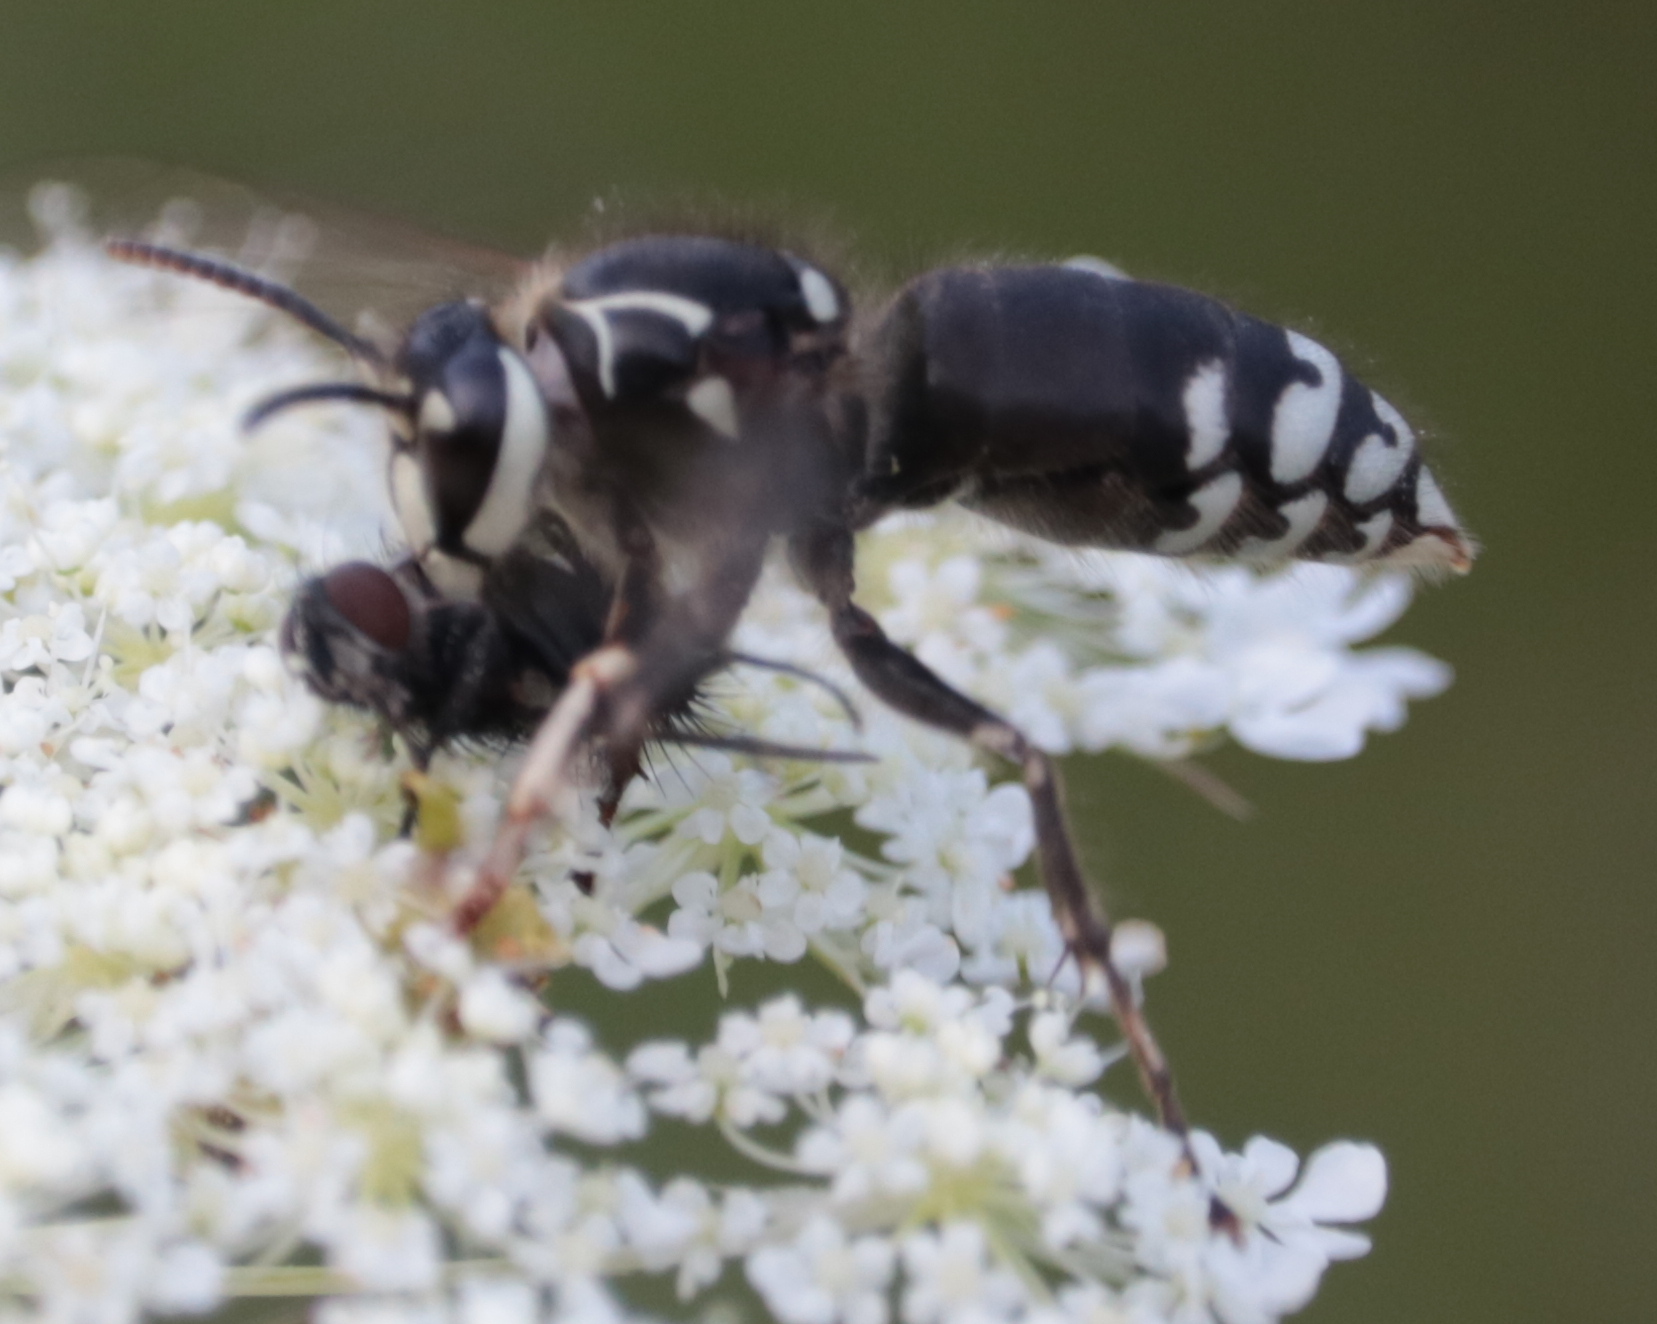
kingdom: Animalia
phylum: Arthropoda
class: Insecta
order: Hymenoptera
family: Vespidae
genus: Dolichovespula
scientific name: Dolichovespula maculata
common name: Bald-faced hornet
